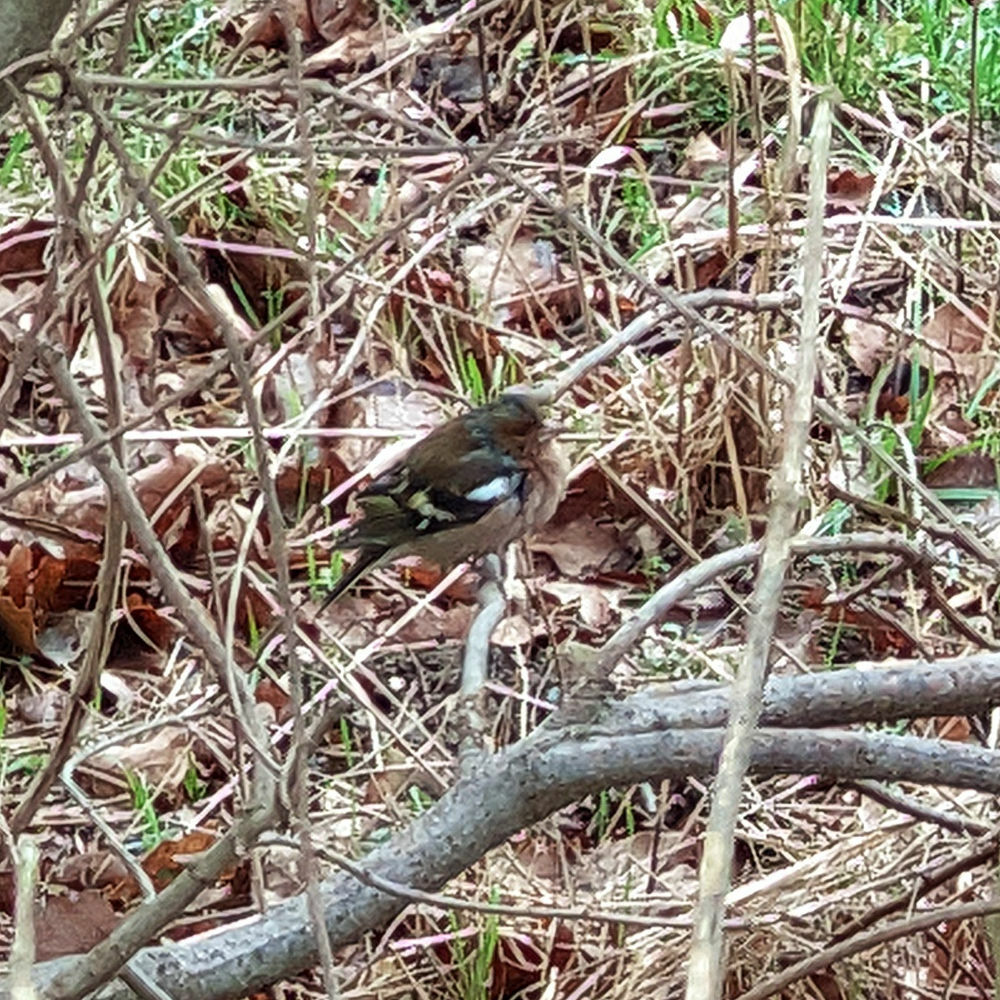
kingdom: Animalia
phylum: Chordata
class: Aves
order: Passeriformes
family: Fringillidae
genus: Fringilla
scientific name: Fringilla coelebs
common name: Common chaffinch
